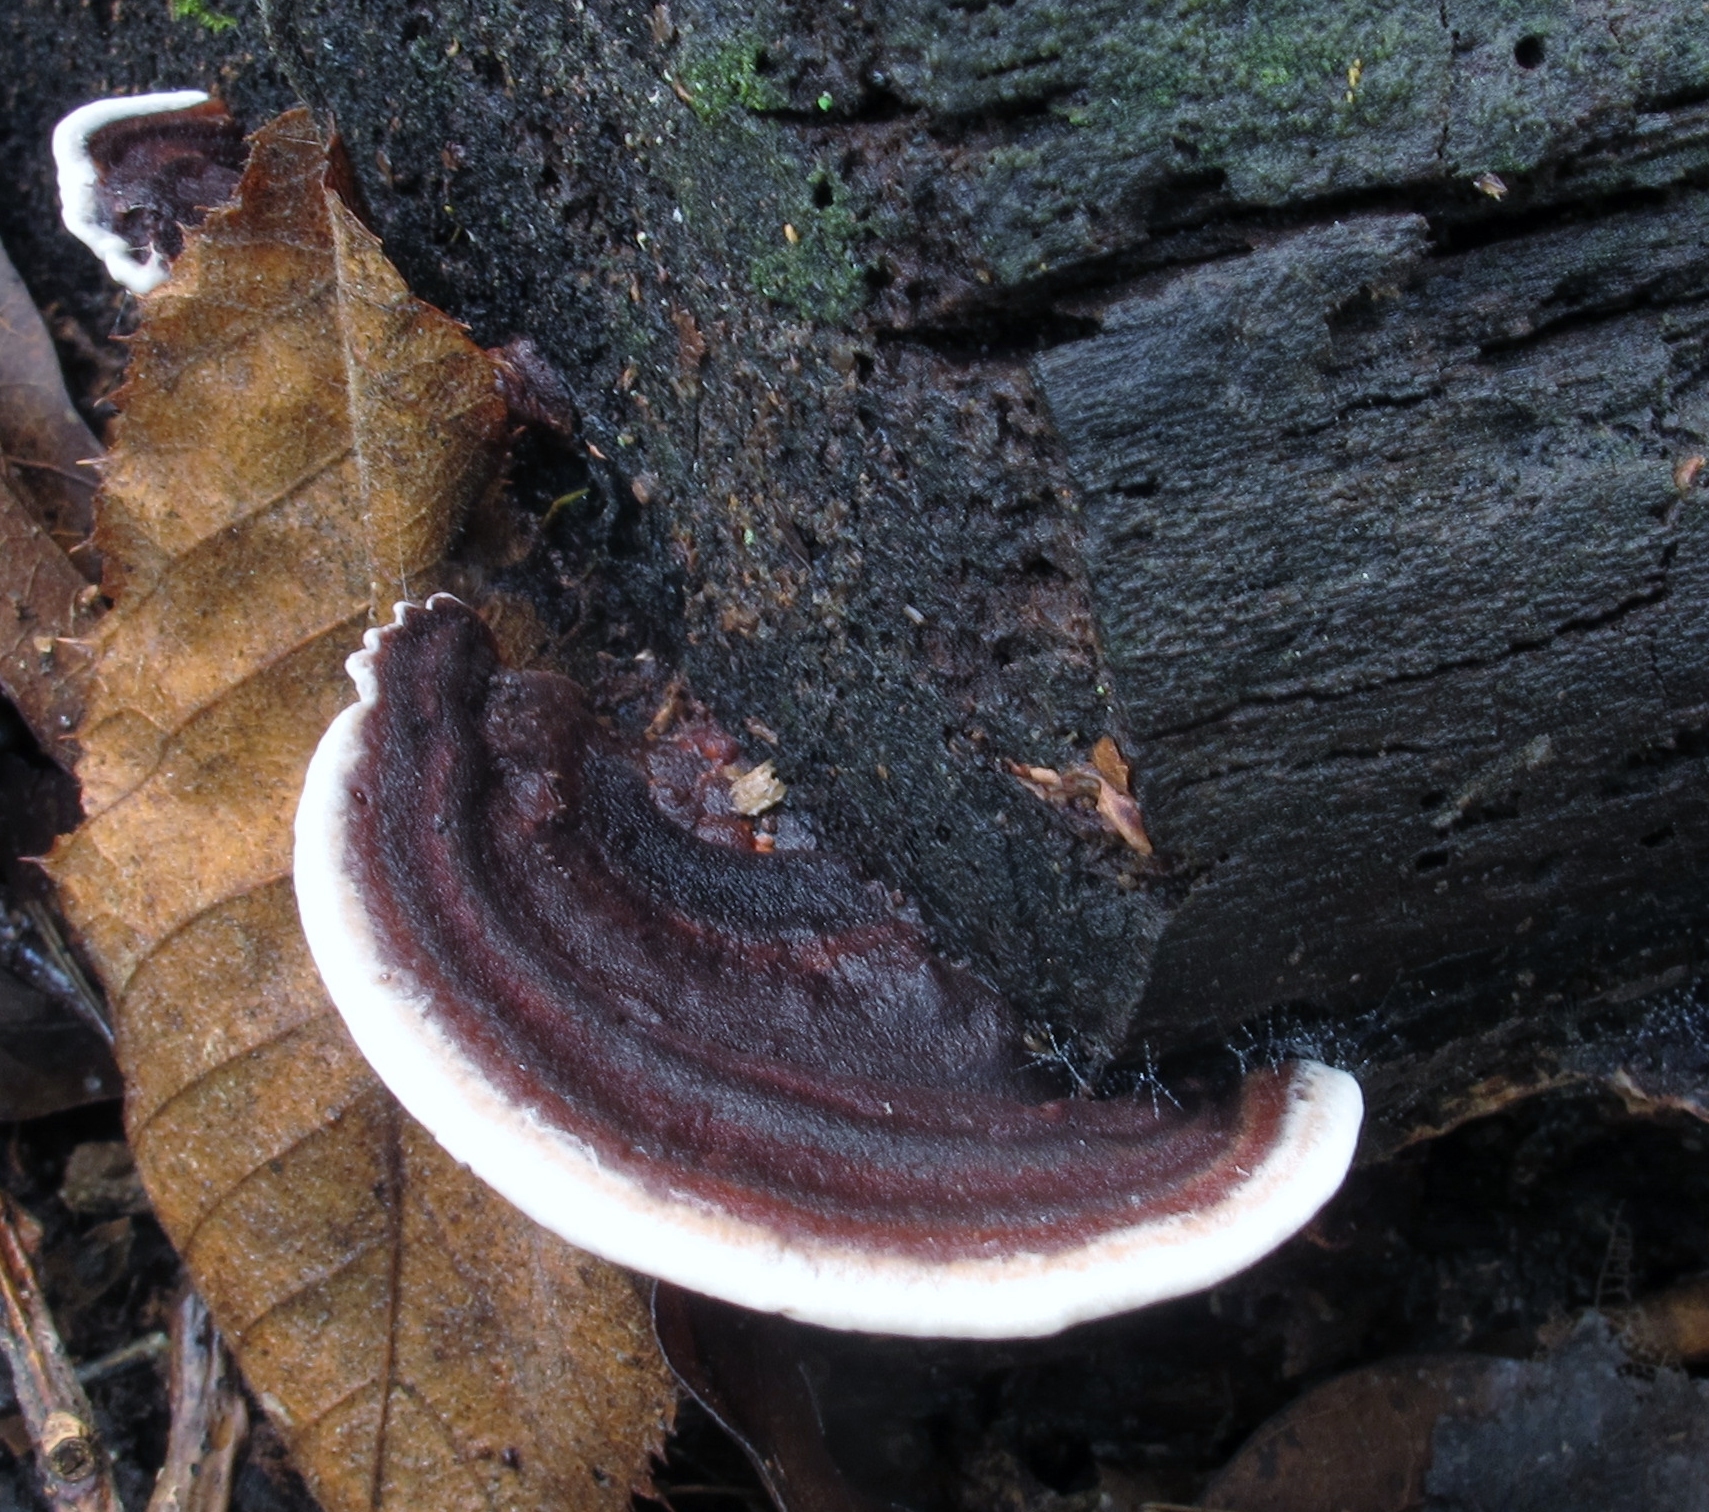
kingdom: Fungi
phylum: Basidiomycota
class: Agaricomycetes
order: Polyporales
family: Steccherinaceae
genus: Nigroporus
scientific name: Nigroporus vinosus
